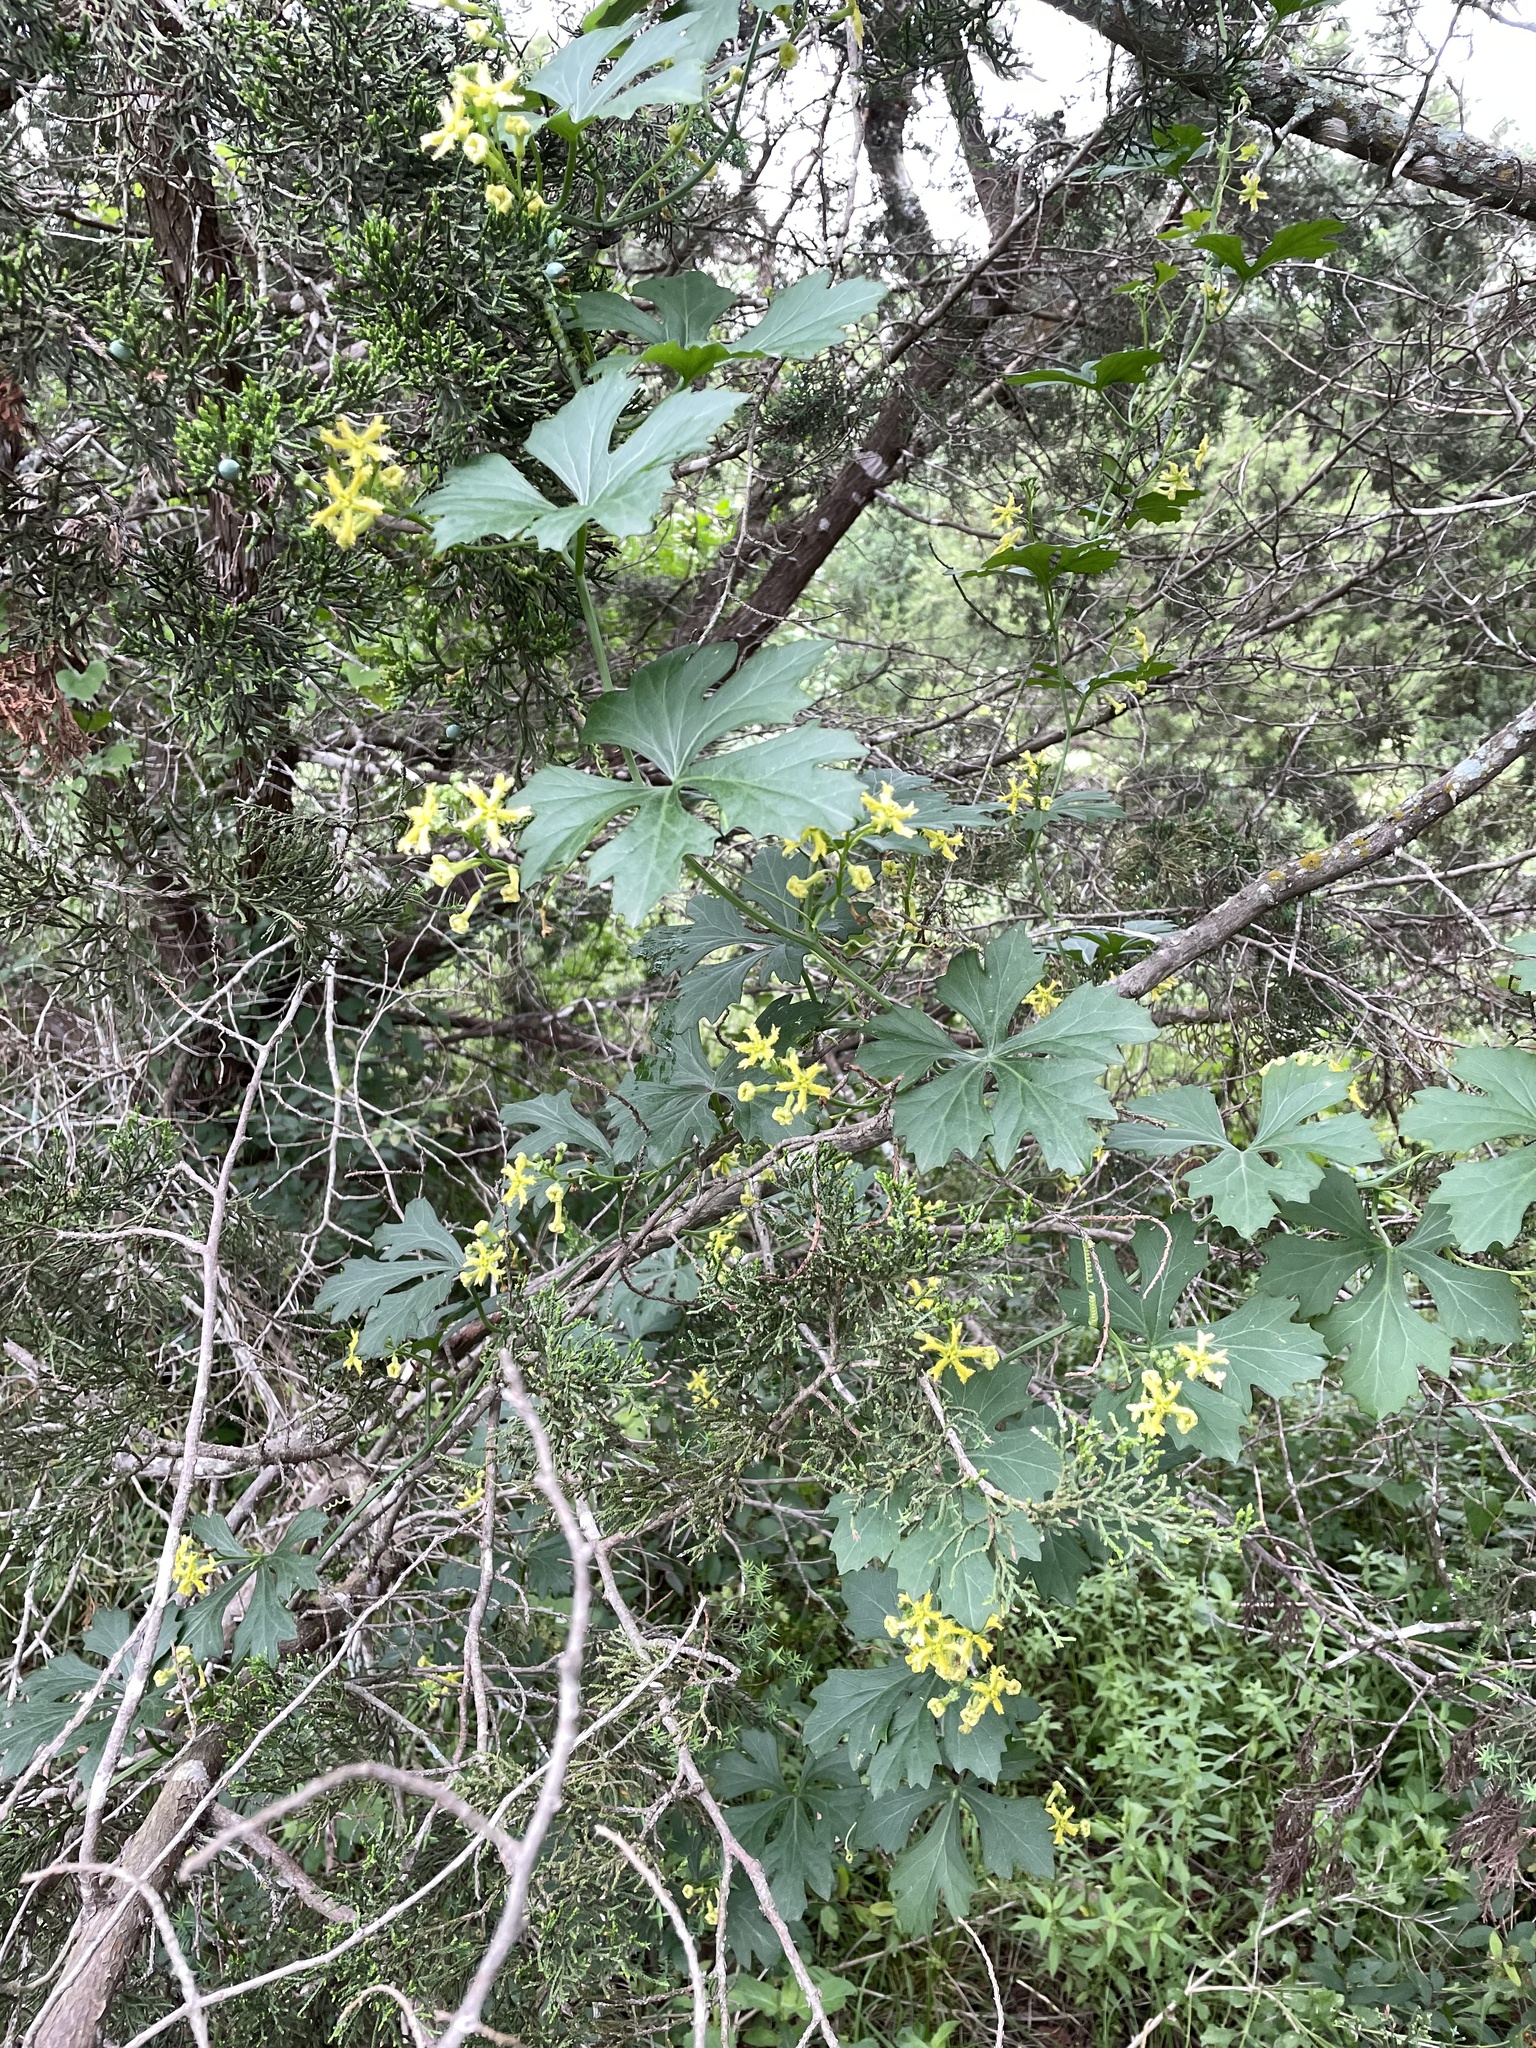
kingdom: Plantae
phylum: Tracheophyta
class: Magnoliopsida
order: Cucurbitales
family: Cucurbitaceae
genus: Ibervillea
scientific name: Ibervillea lindheimeri
